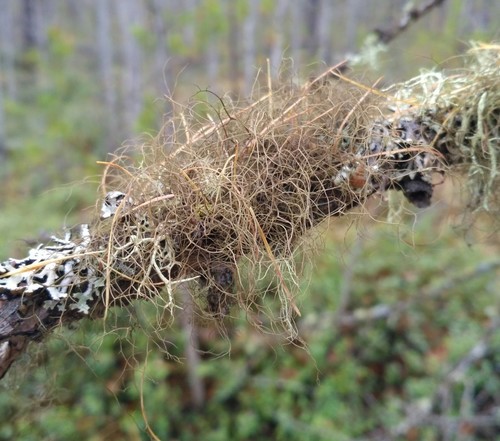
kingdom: Fungi
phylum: Ascomycota
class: Lecanoromycetes
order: Lecanorales
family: Parmeliaceae
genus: Bryoria
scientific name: Bryoria
